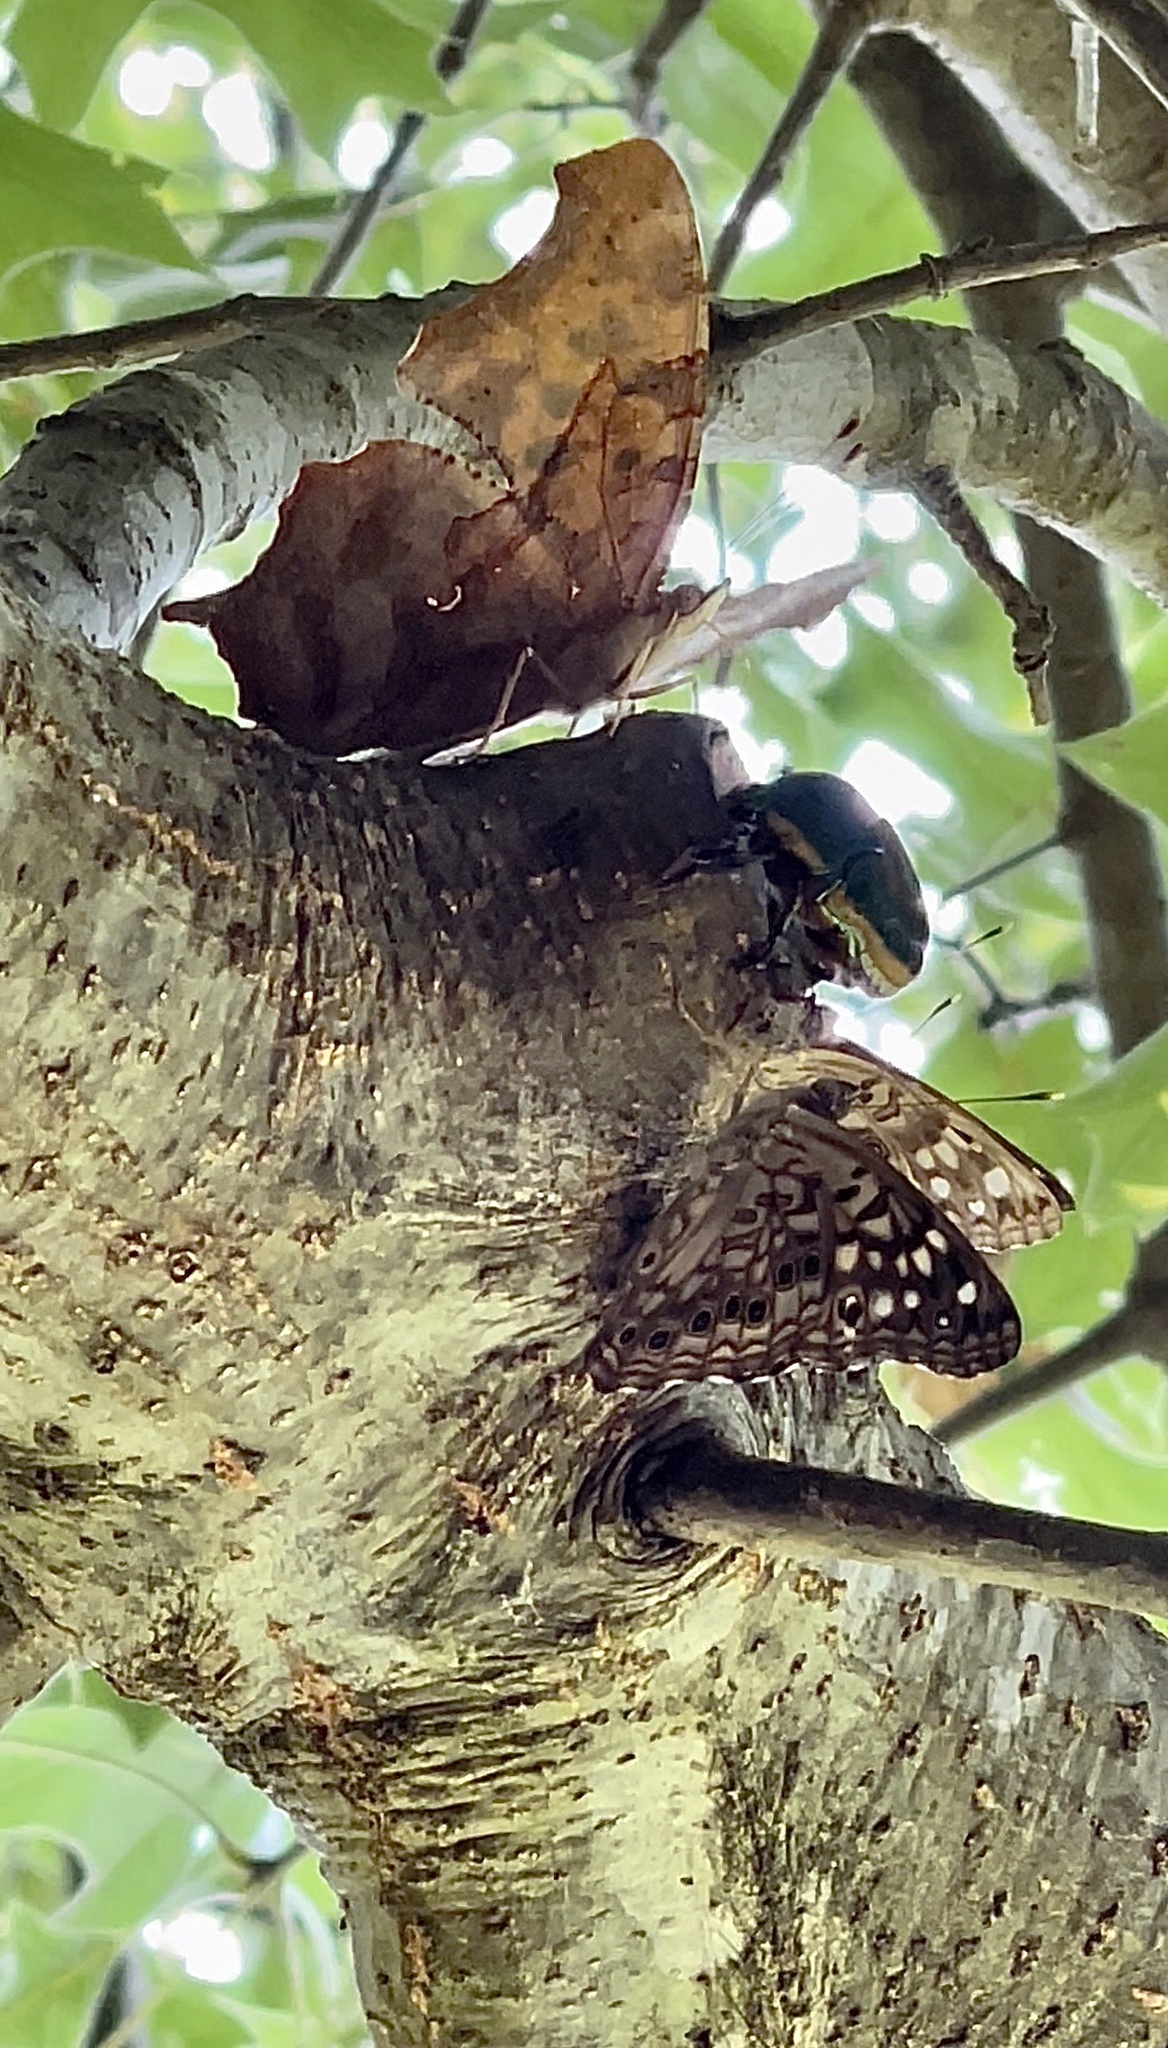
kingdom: Animalia
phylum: Arthropoda
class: Insecta
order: Lepidoptera
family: Nymphalidae
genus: Polygonia
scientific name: Polygonia interrogationis
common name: Question mark
